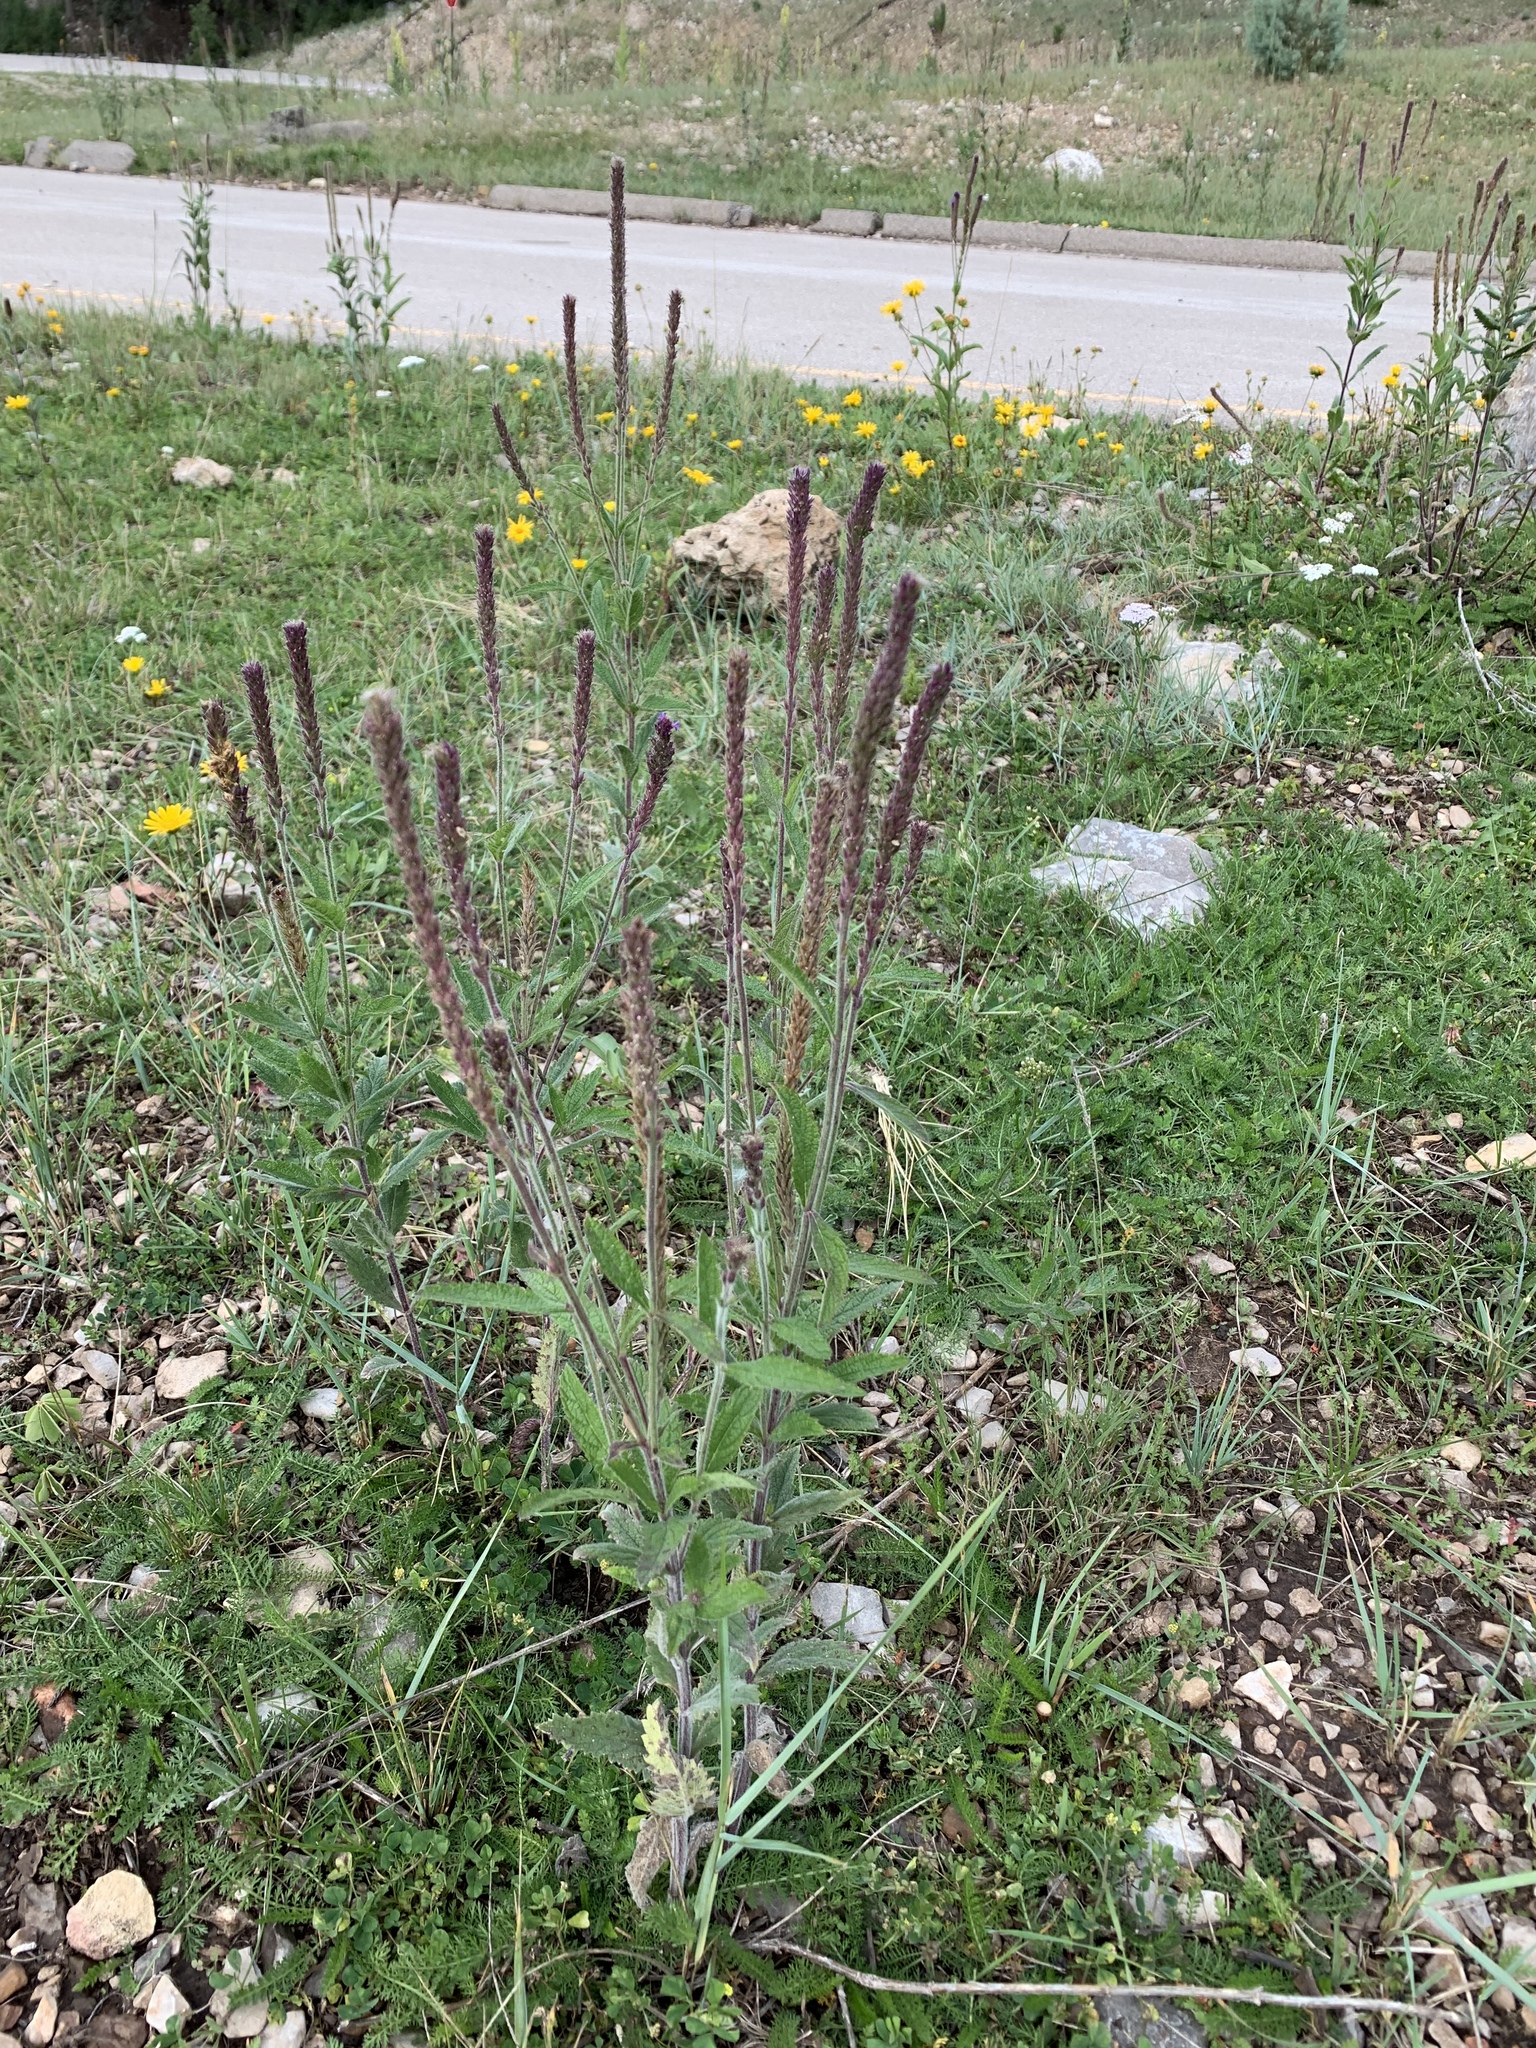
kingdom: Plantae
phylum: Tracheophyta
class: Magnoliopsida
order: Lamiales
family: Verbenaceae
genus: Verbena
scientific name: Verbena macdougalii
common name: New mexico vervain
